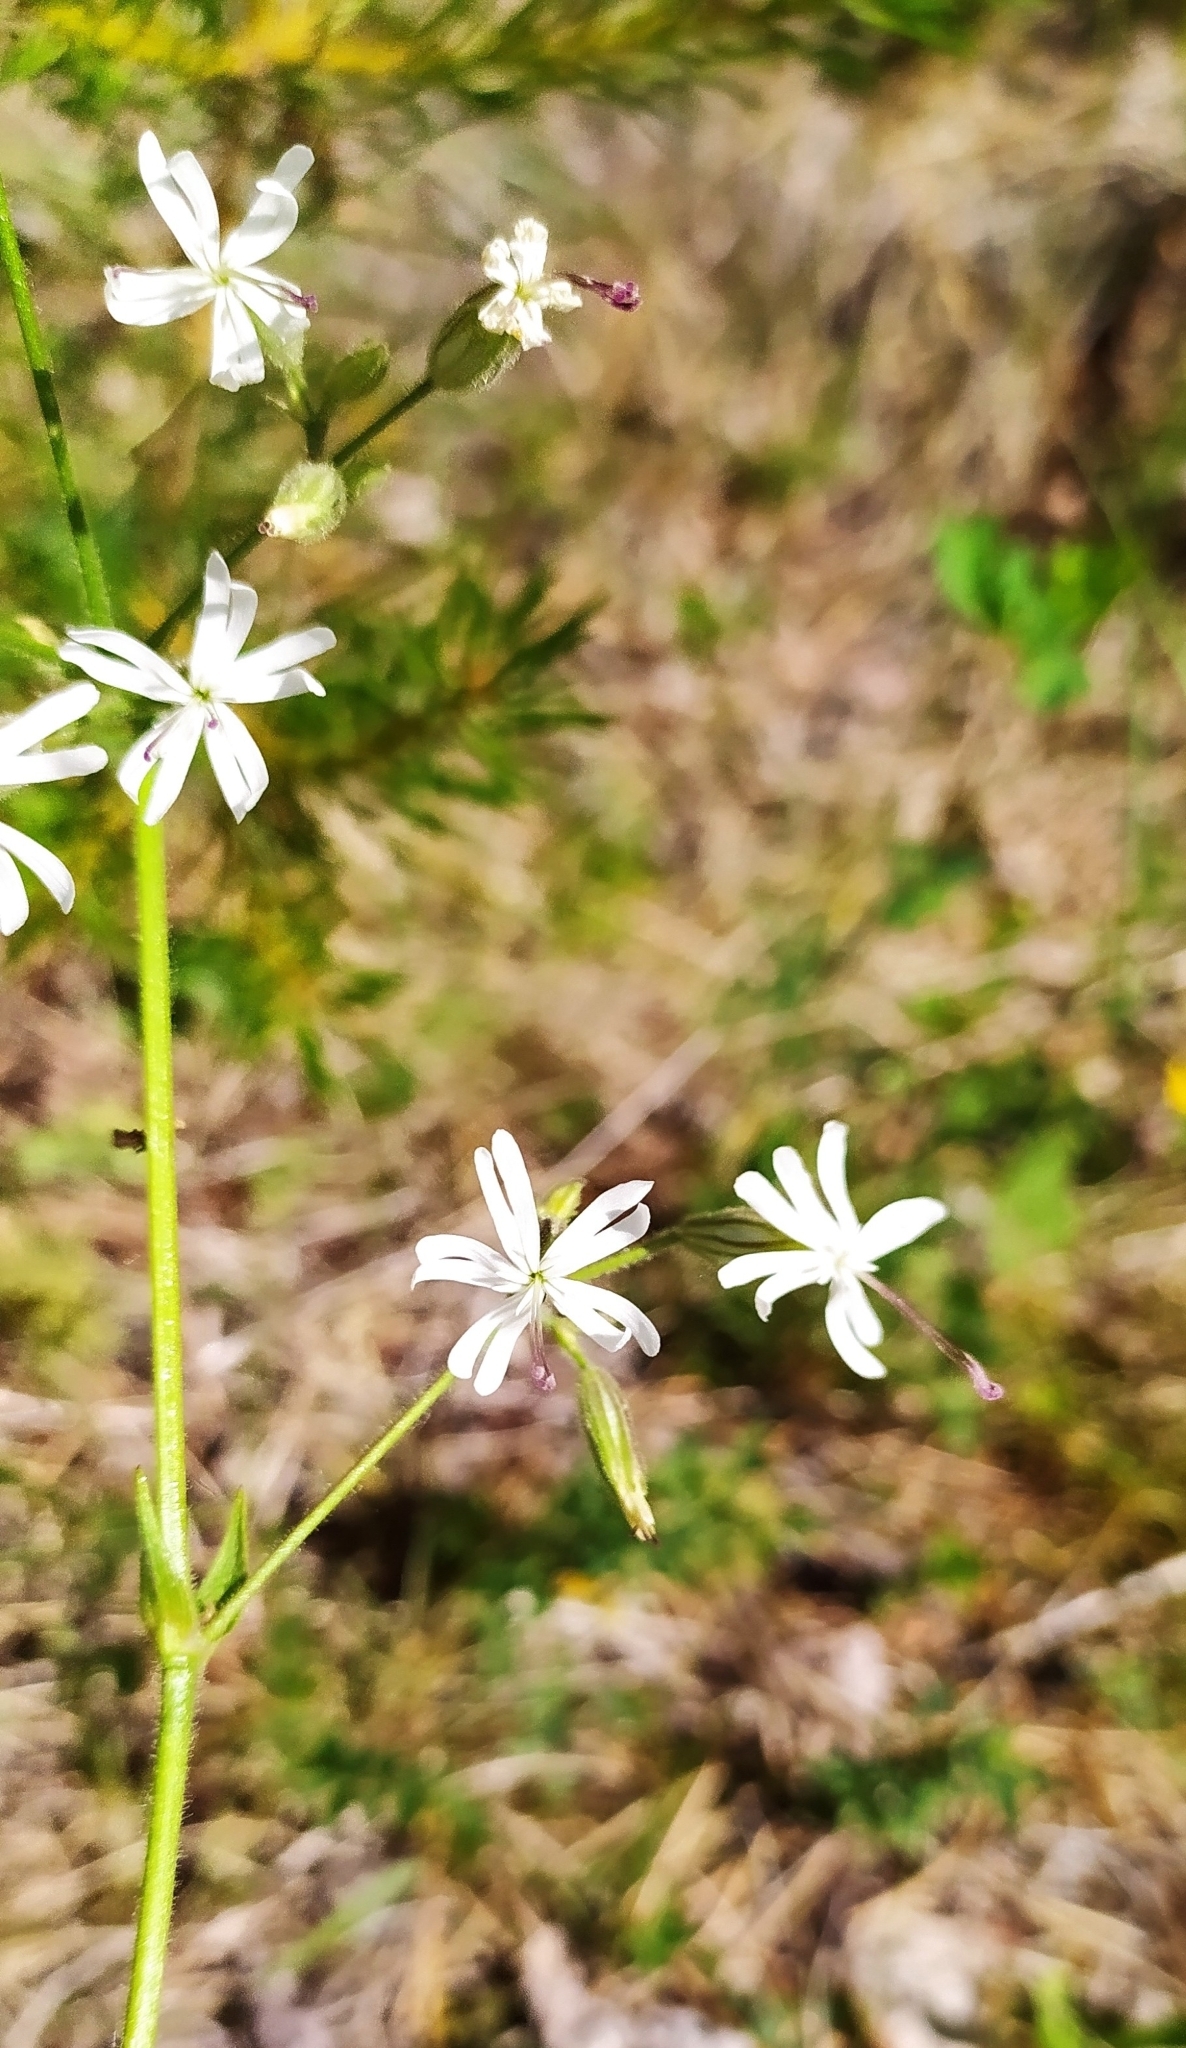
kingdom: Plantae
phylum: Tracheophyta
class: Magnoliopsida
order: Caryophyllales
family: Caryophyllaceae
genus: Silene
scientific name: Silene nutans
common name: Nottingham catchfly
